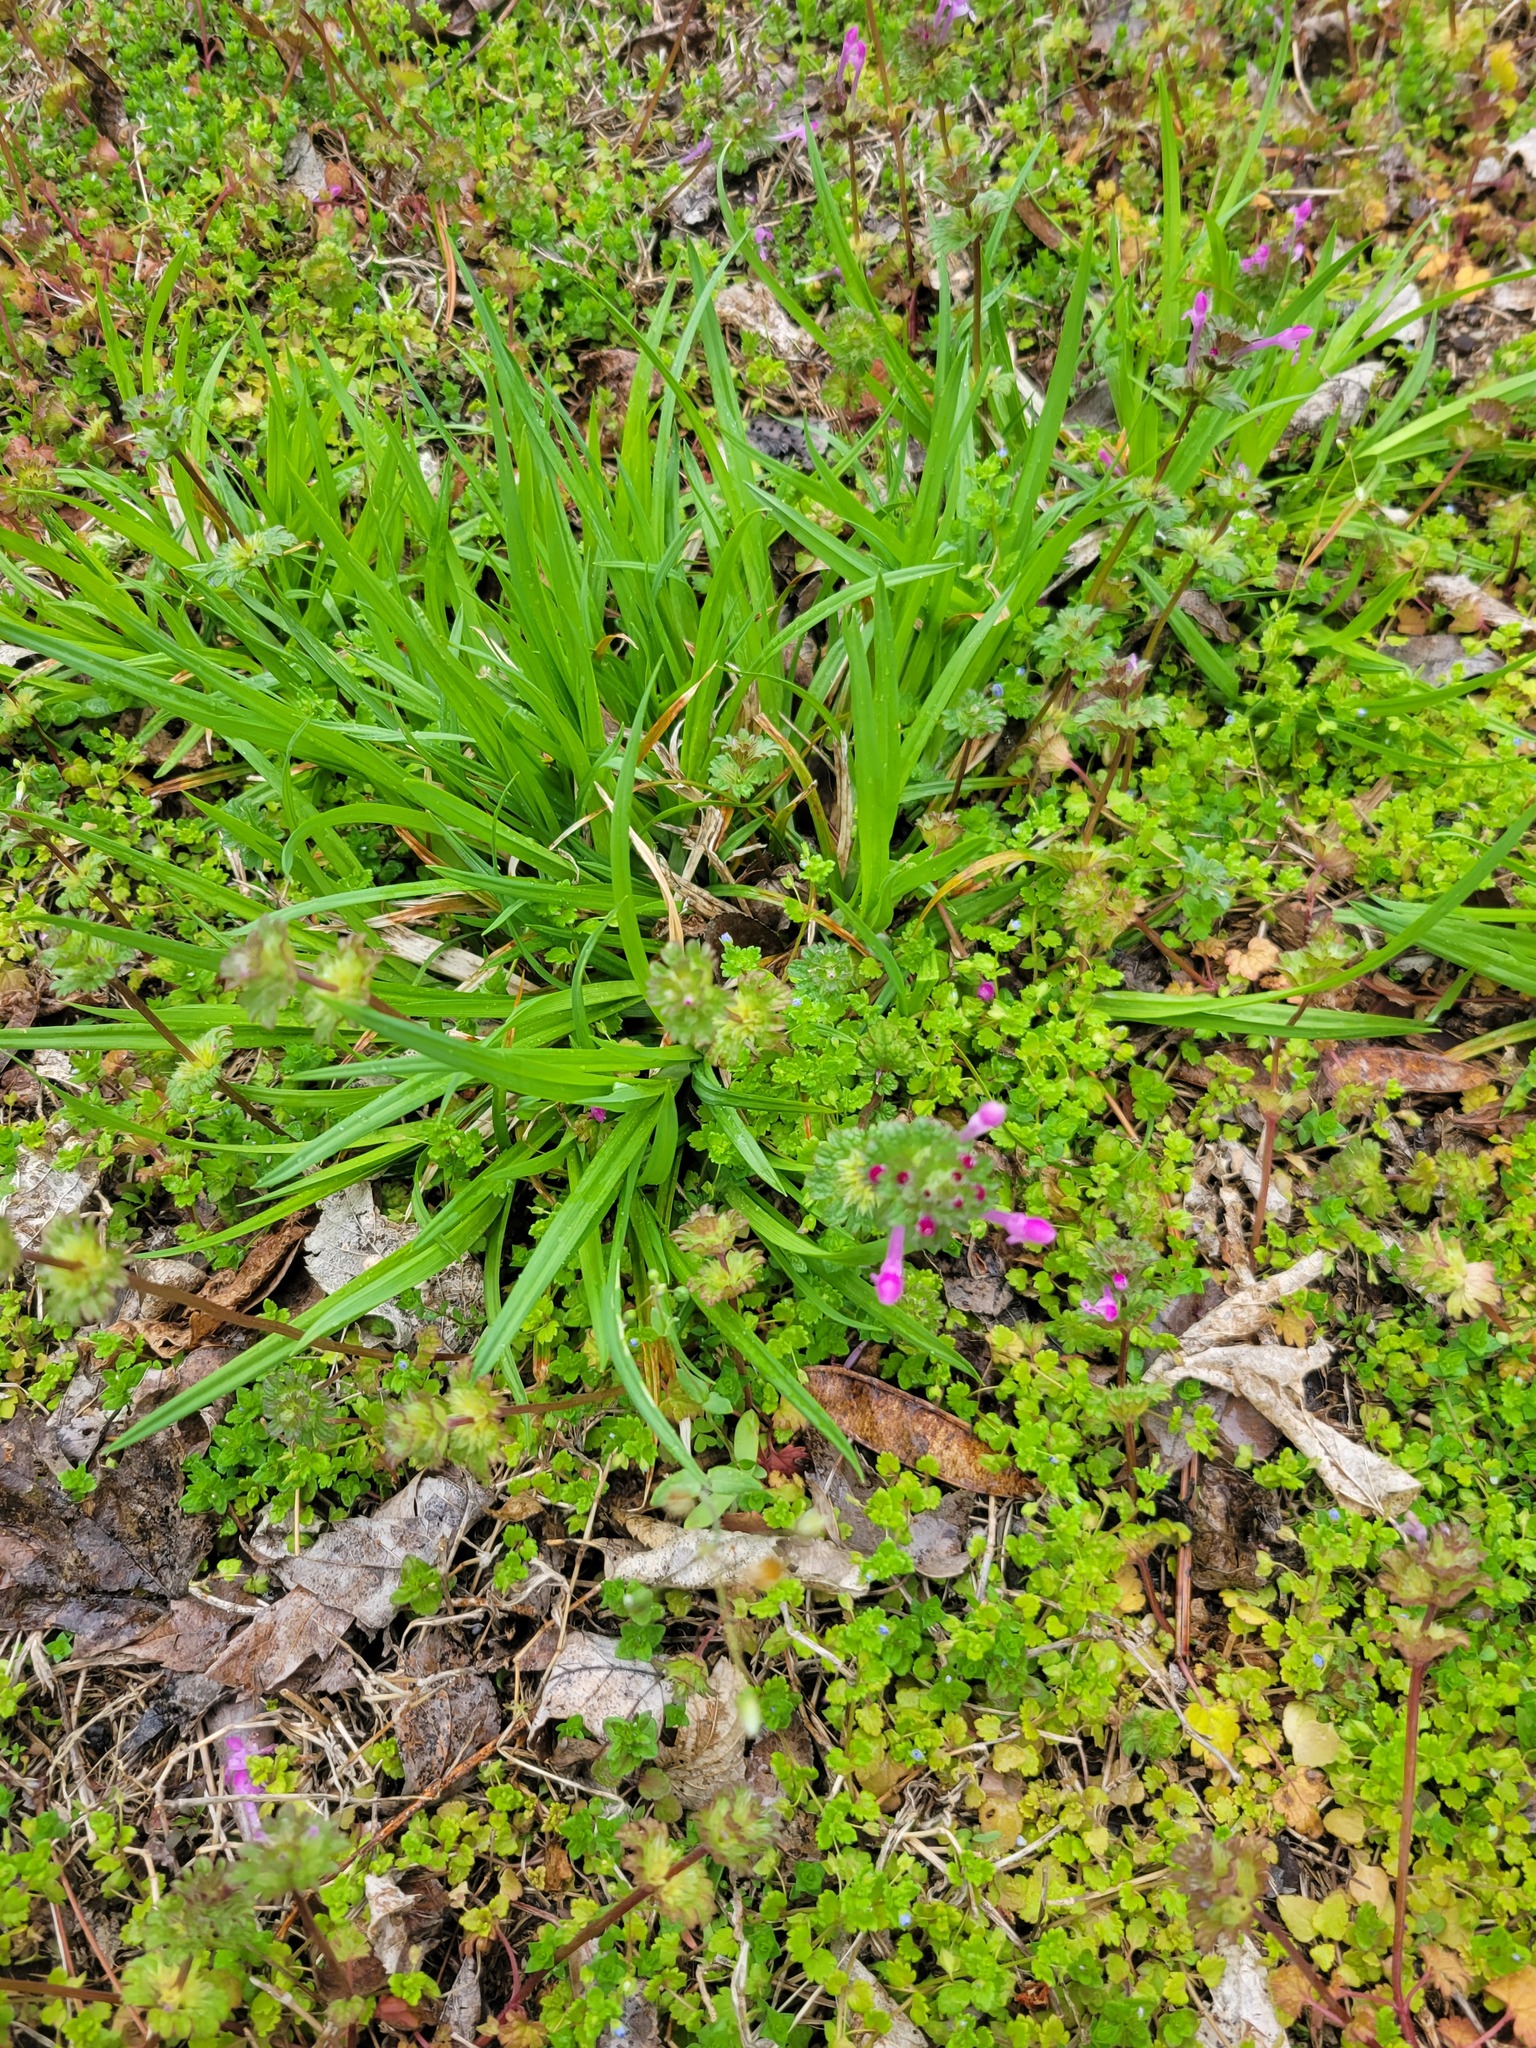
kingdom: Plantae
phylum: Tracheophyta
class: Magnoliopsida
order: Lamiales
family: Lamiaceae
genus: Lamium
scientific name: Lamium amplexicaule
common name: Henbit dead-nettle
